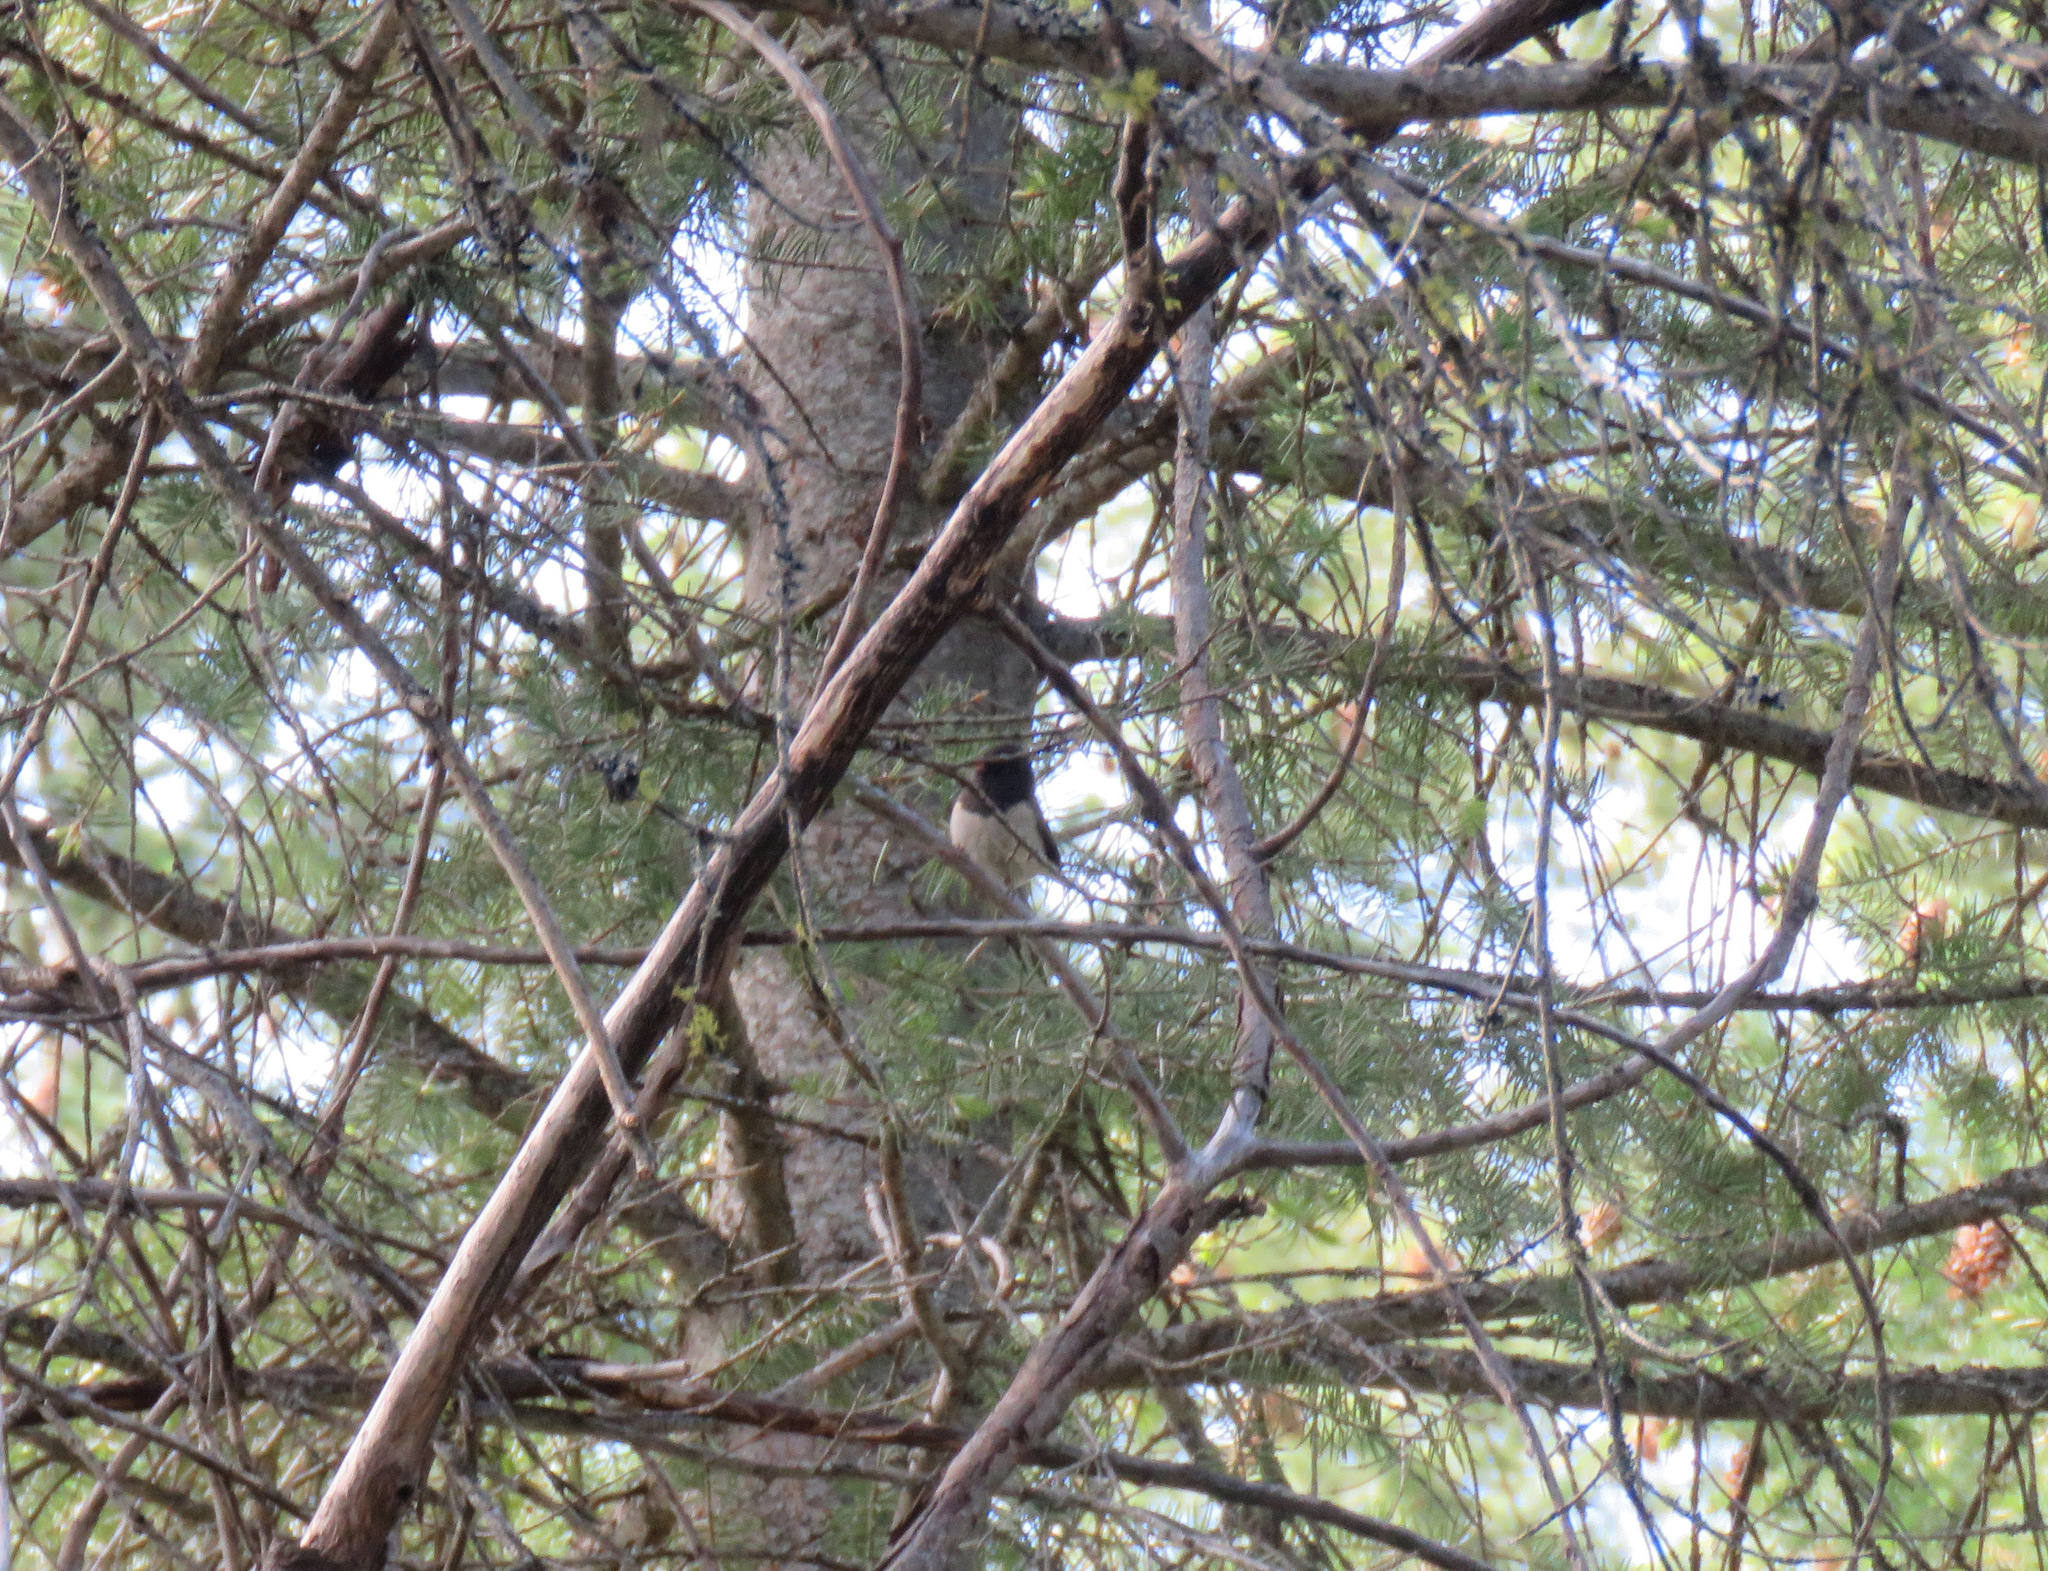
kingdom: Animalia
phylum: Chordata
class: Aves
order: Passeriformes
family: Passerellidae
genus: Junco
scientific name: Junco hyemalis
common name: Dark-eyed junco
